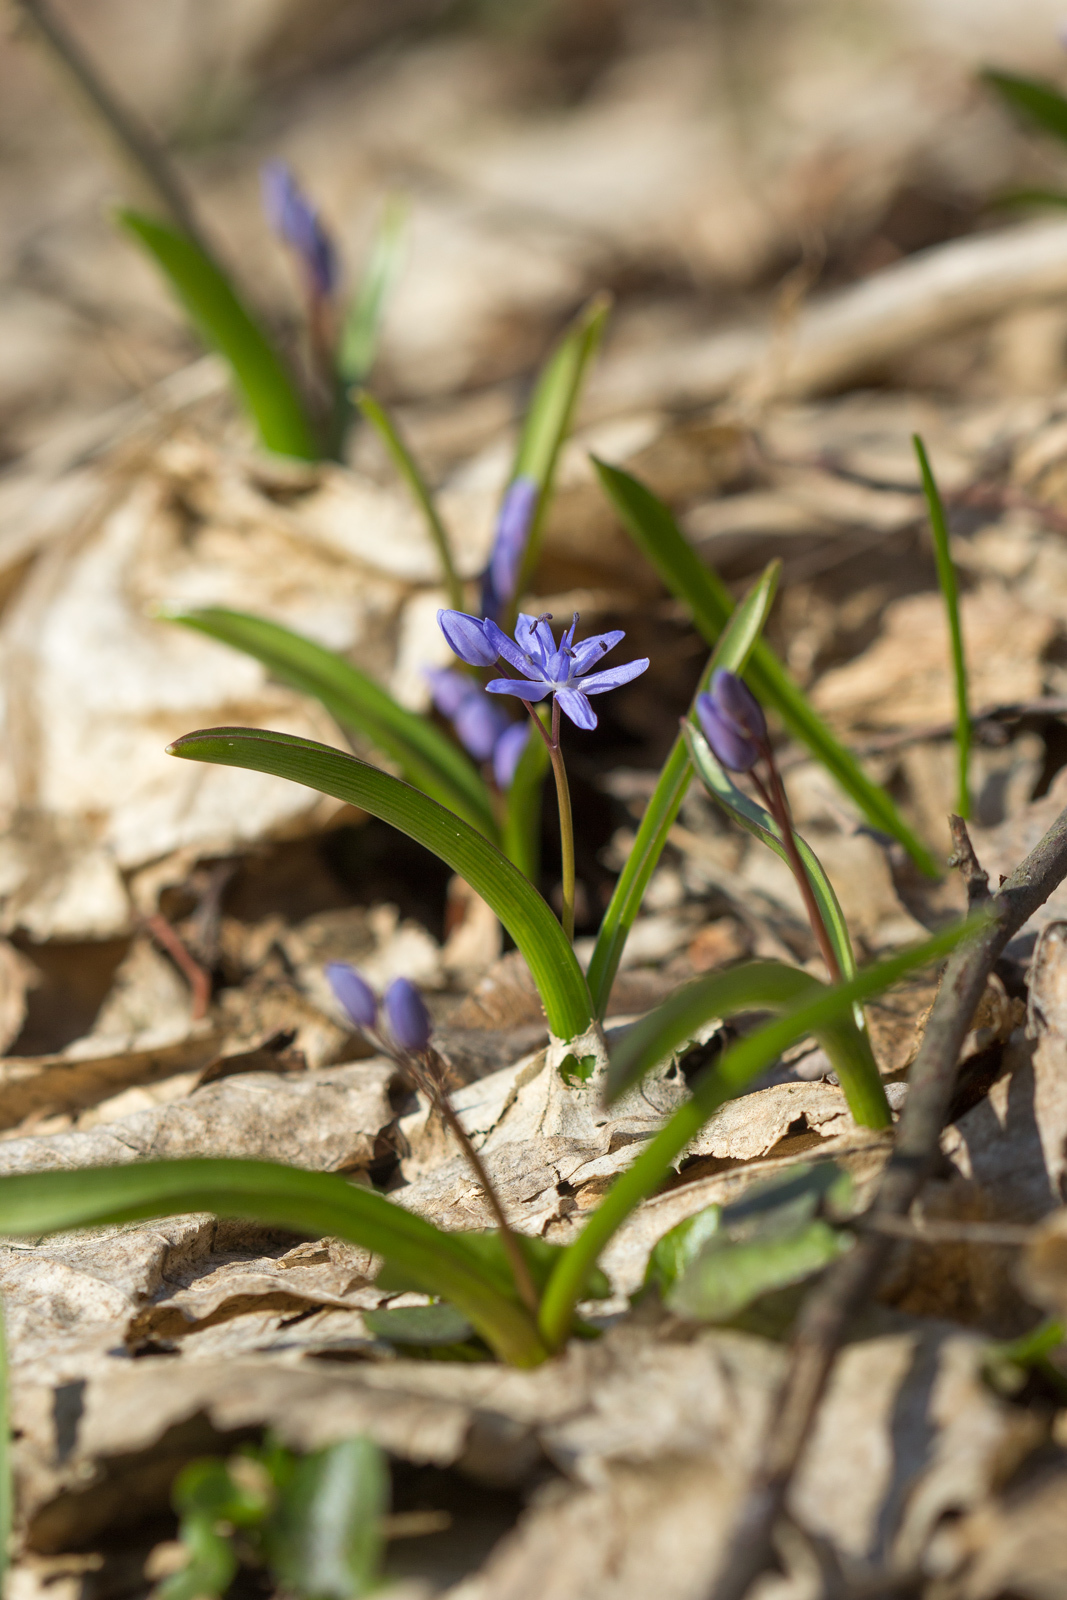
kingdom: Plantae
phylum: Tracheophyta
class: Liliopsida
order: Asparagales
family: Asparagaceae
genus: Scilla
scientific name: Scilla bifolia
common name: Alpine squill
